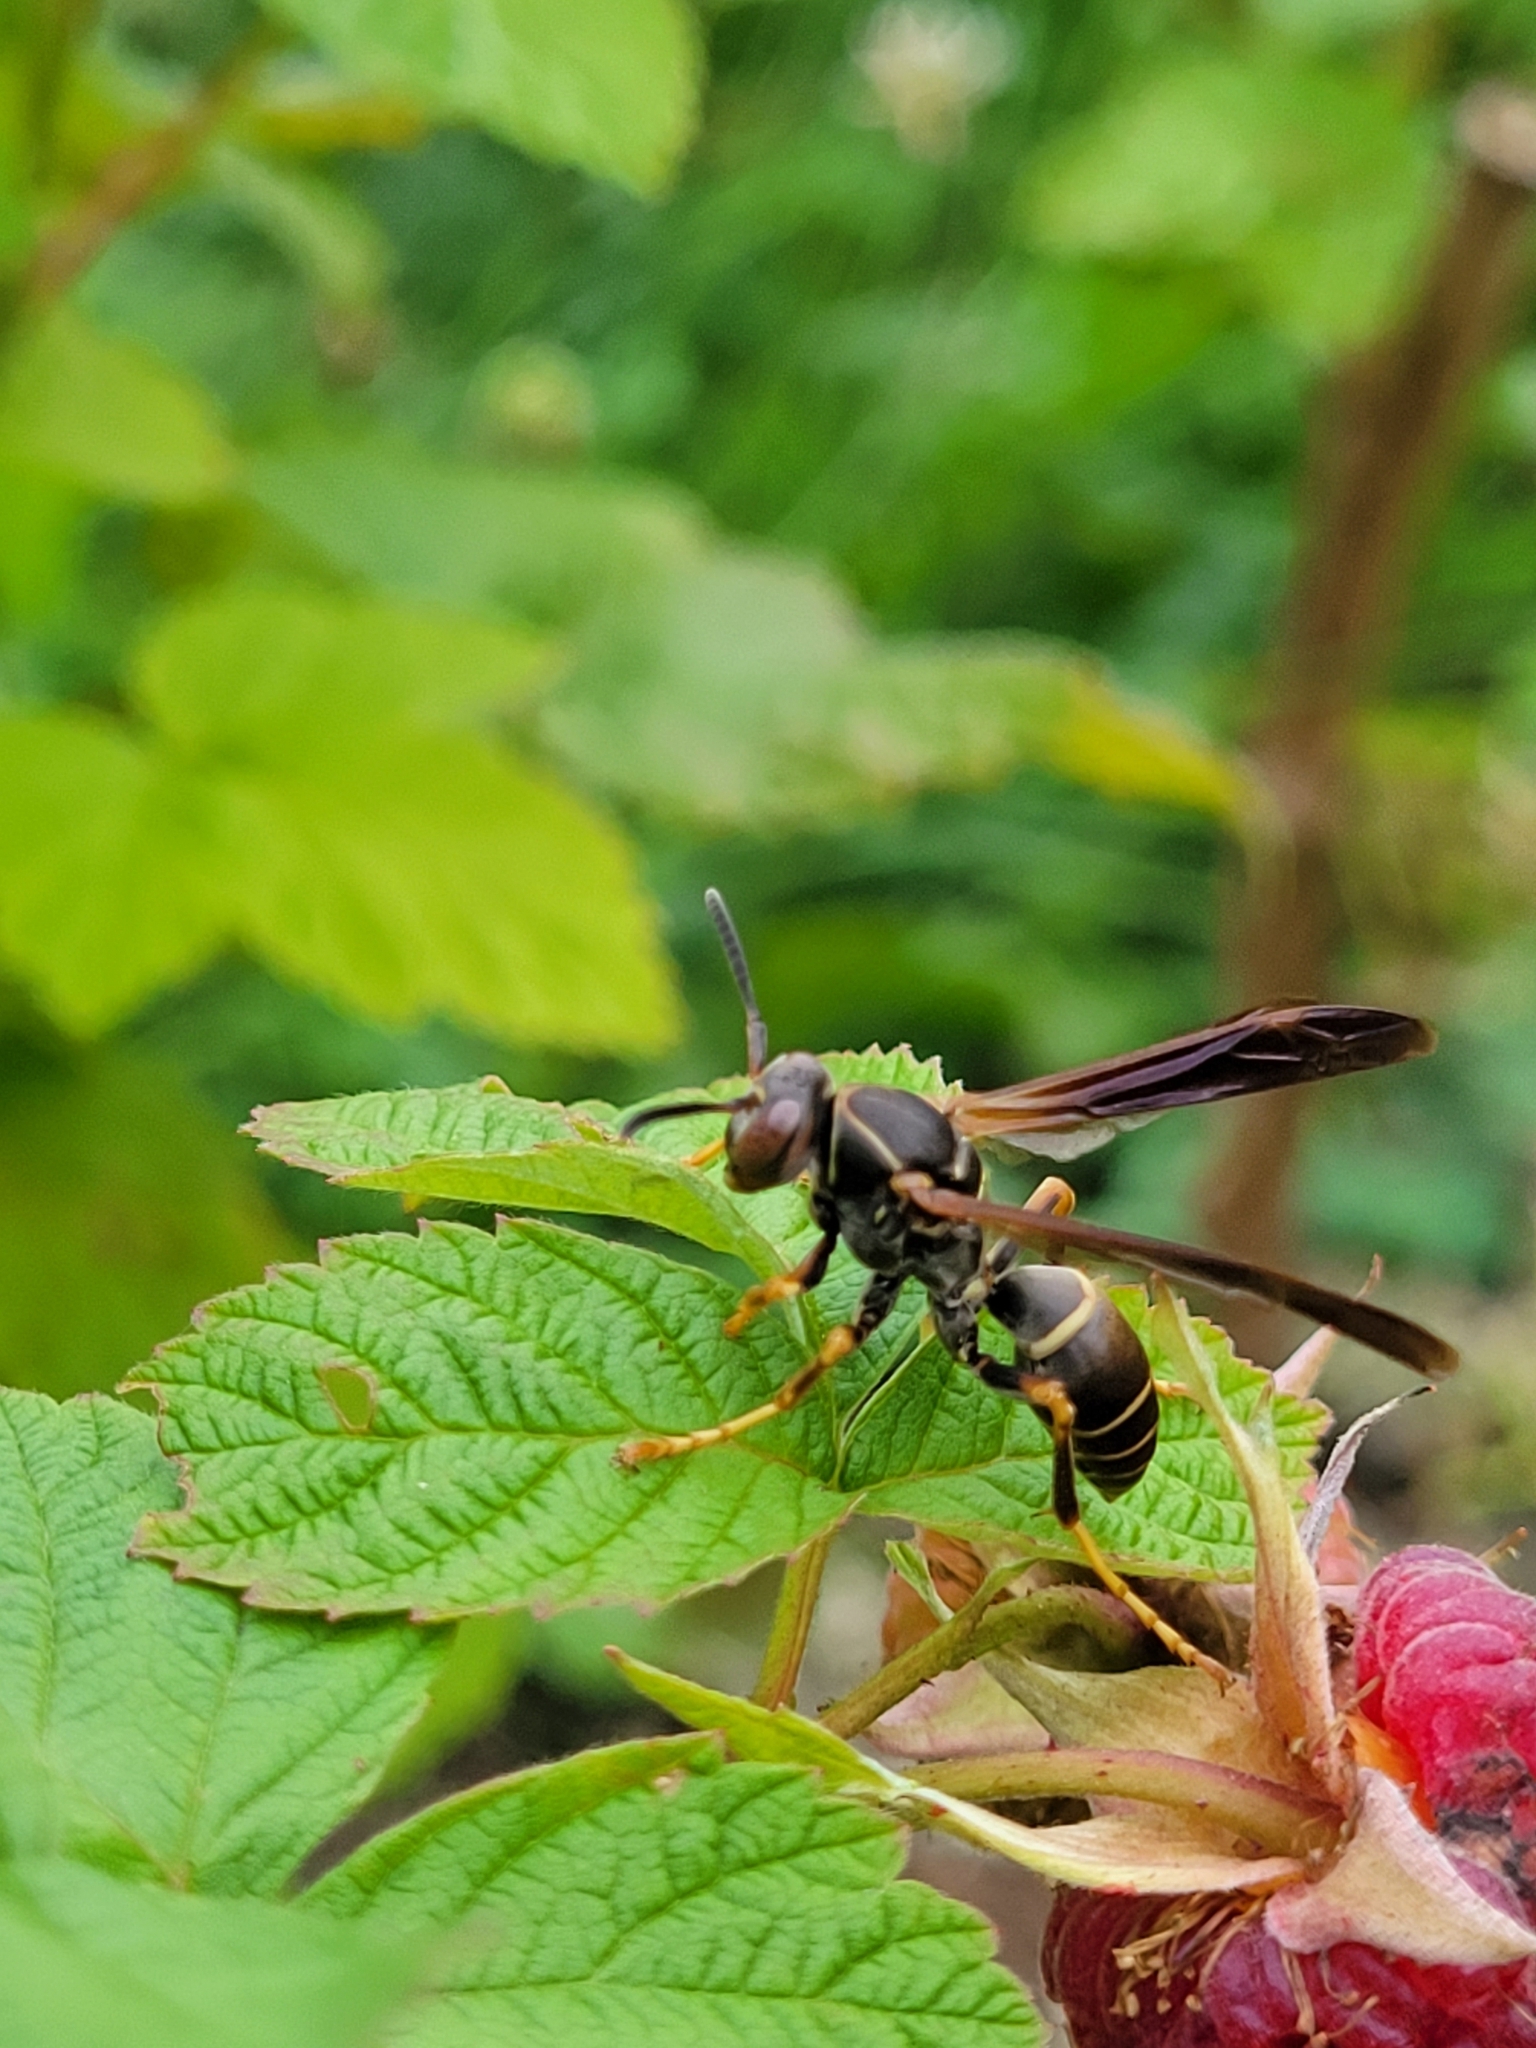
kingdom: Animalia
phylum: Arthropoda
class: Insecta
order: Hymenoptera
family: Eumenidae
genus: Polistes
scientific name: Polistes fuscatus
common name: Dark paper wasp
